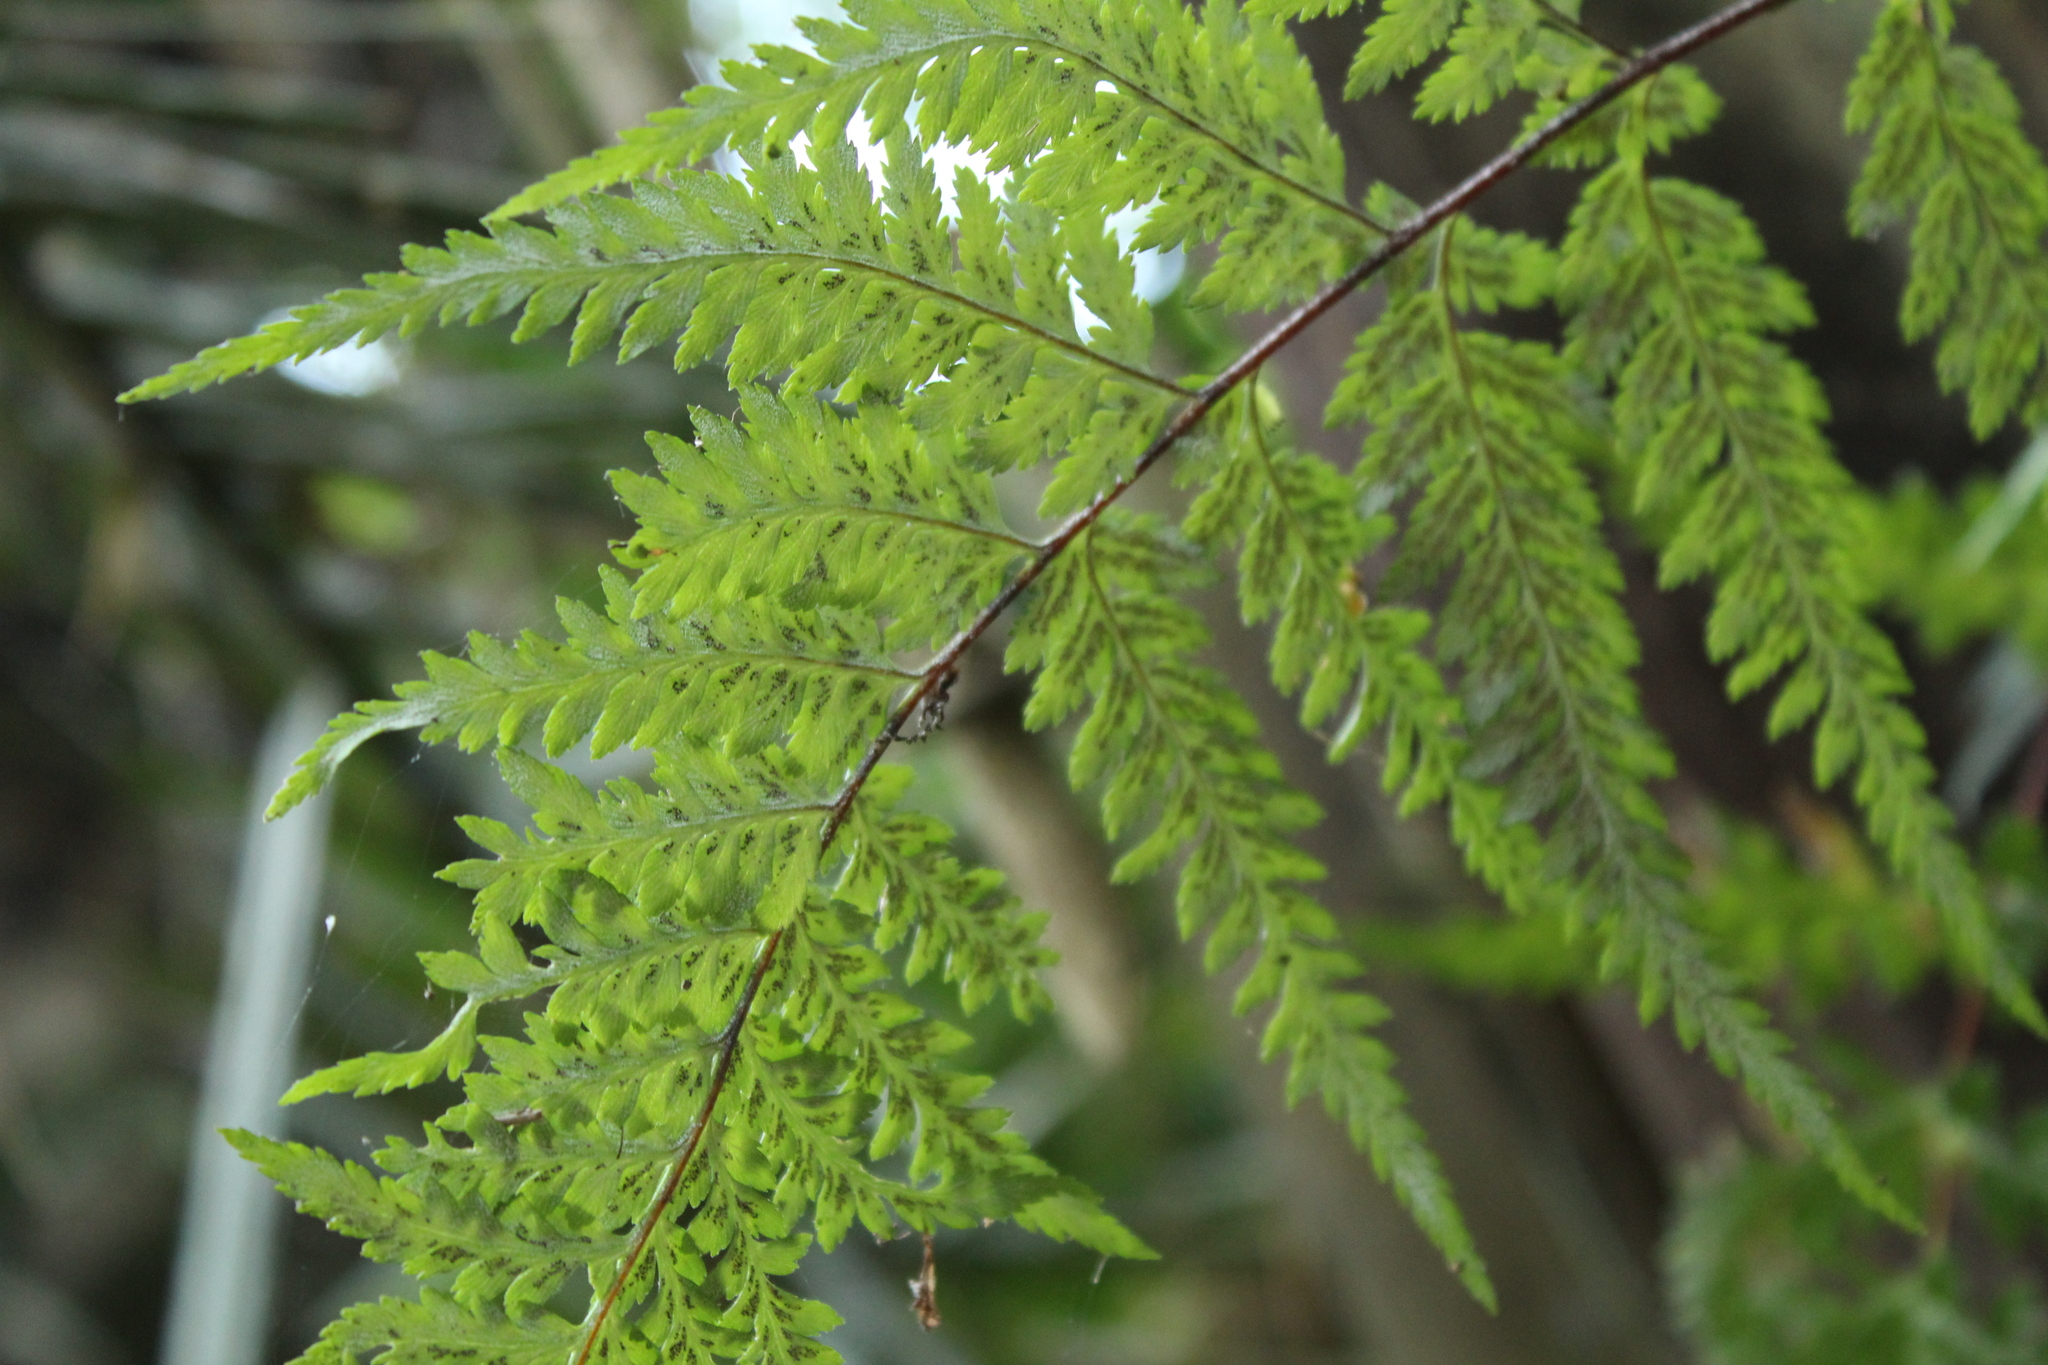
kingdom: Plantae
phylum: Tracheophyta
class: Polypodiopsida
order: Polypodiales
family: Pteridaceae
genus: Pityrogramma
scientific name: Pityrogramma calomelanos
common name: Dixie silverback fern
